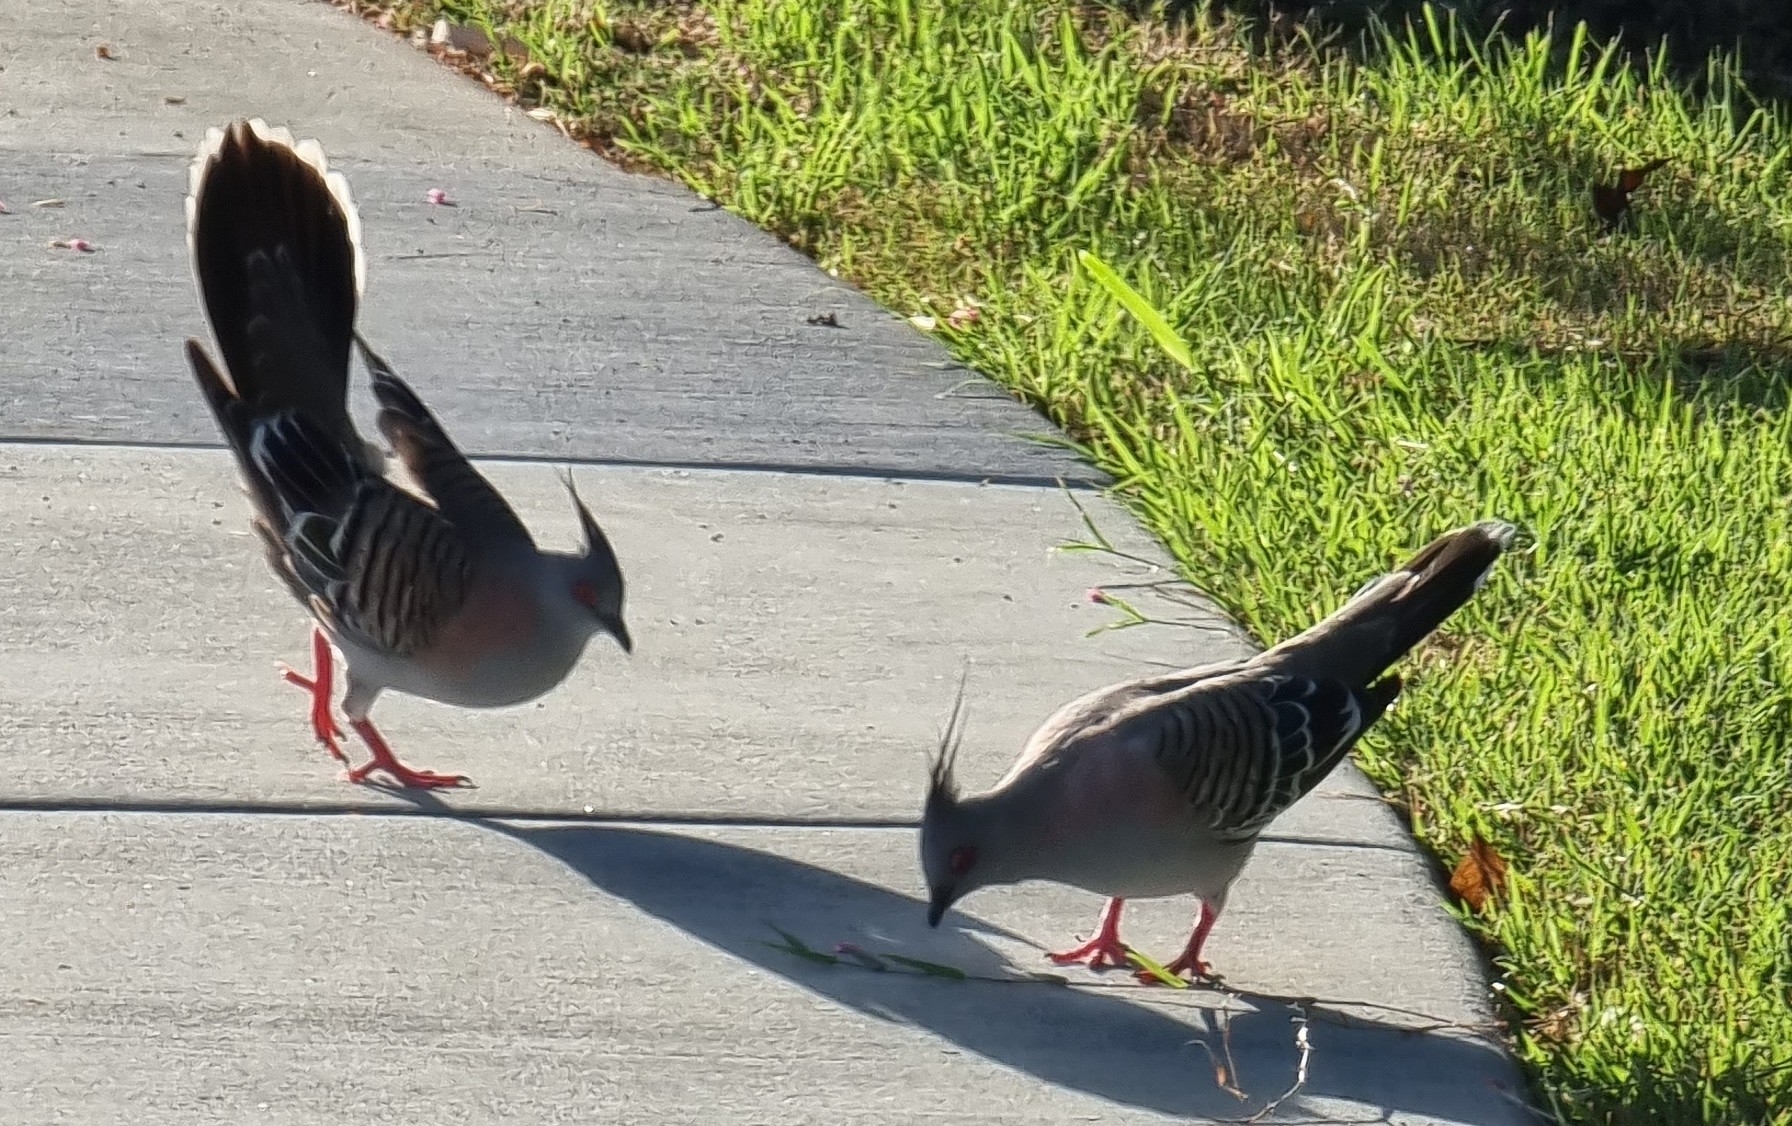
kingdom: Animalia
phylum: Chordata
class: Aves
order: Columbiformes
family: Columbidae
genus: Ocyphaps
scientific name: Ocyphaps lophotes
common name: Crested pigeon
